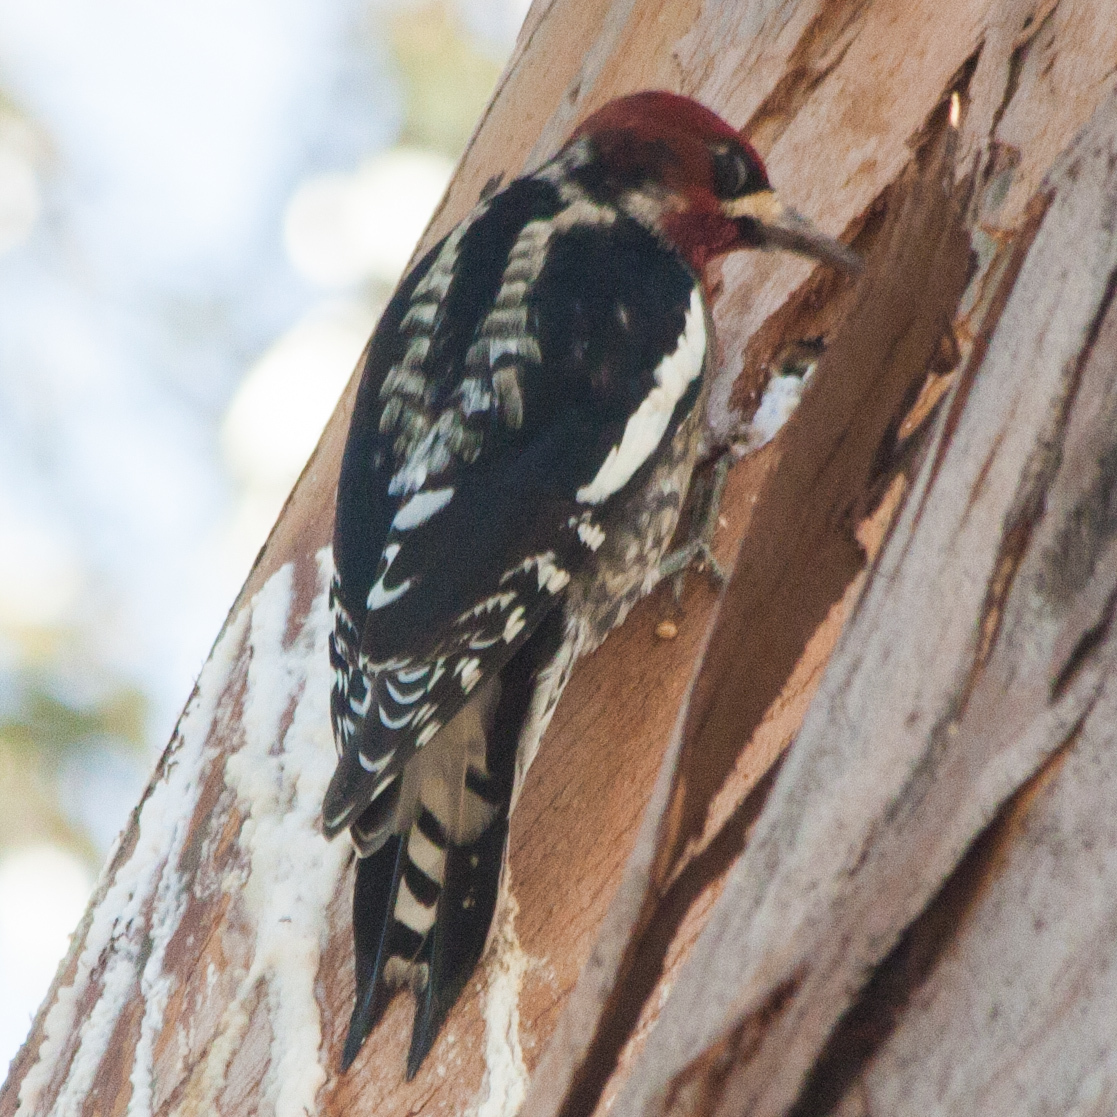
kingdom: Animalia
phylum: Chordata
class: Aves
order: Piciformes
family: Picidae
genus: Sphyrapicus
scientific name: Sphyrapicus ruber
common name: Red-breasted sapsucker
